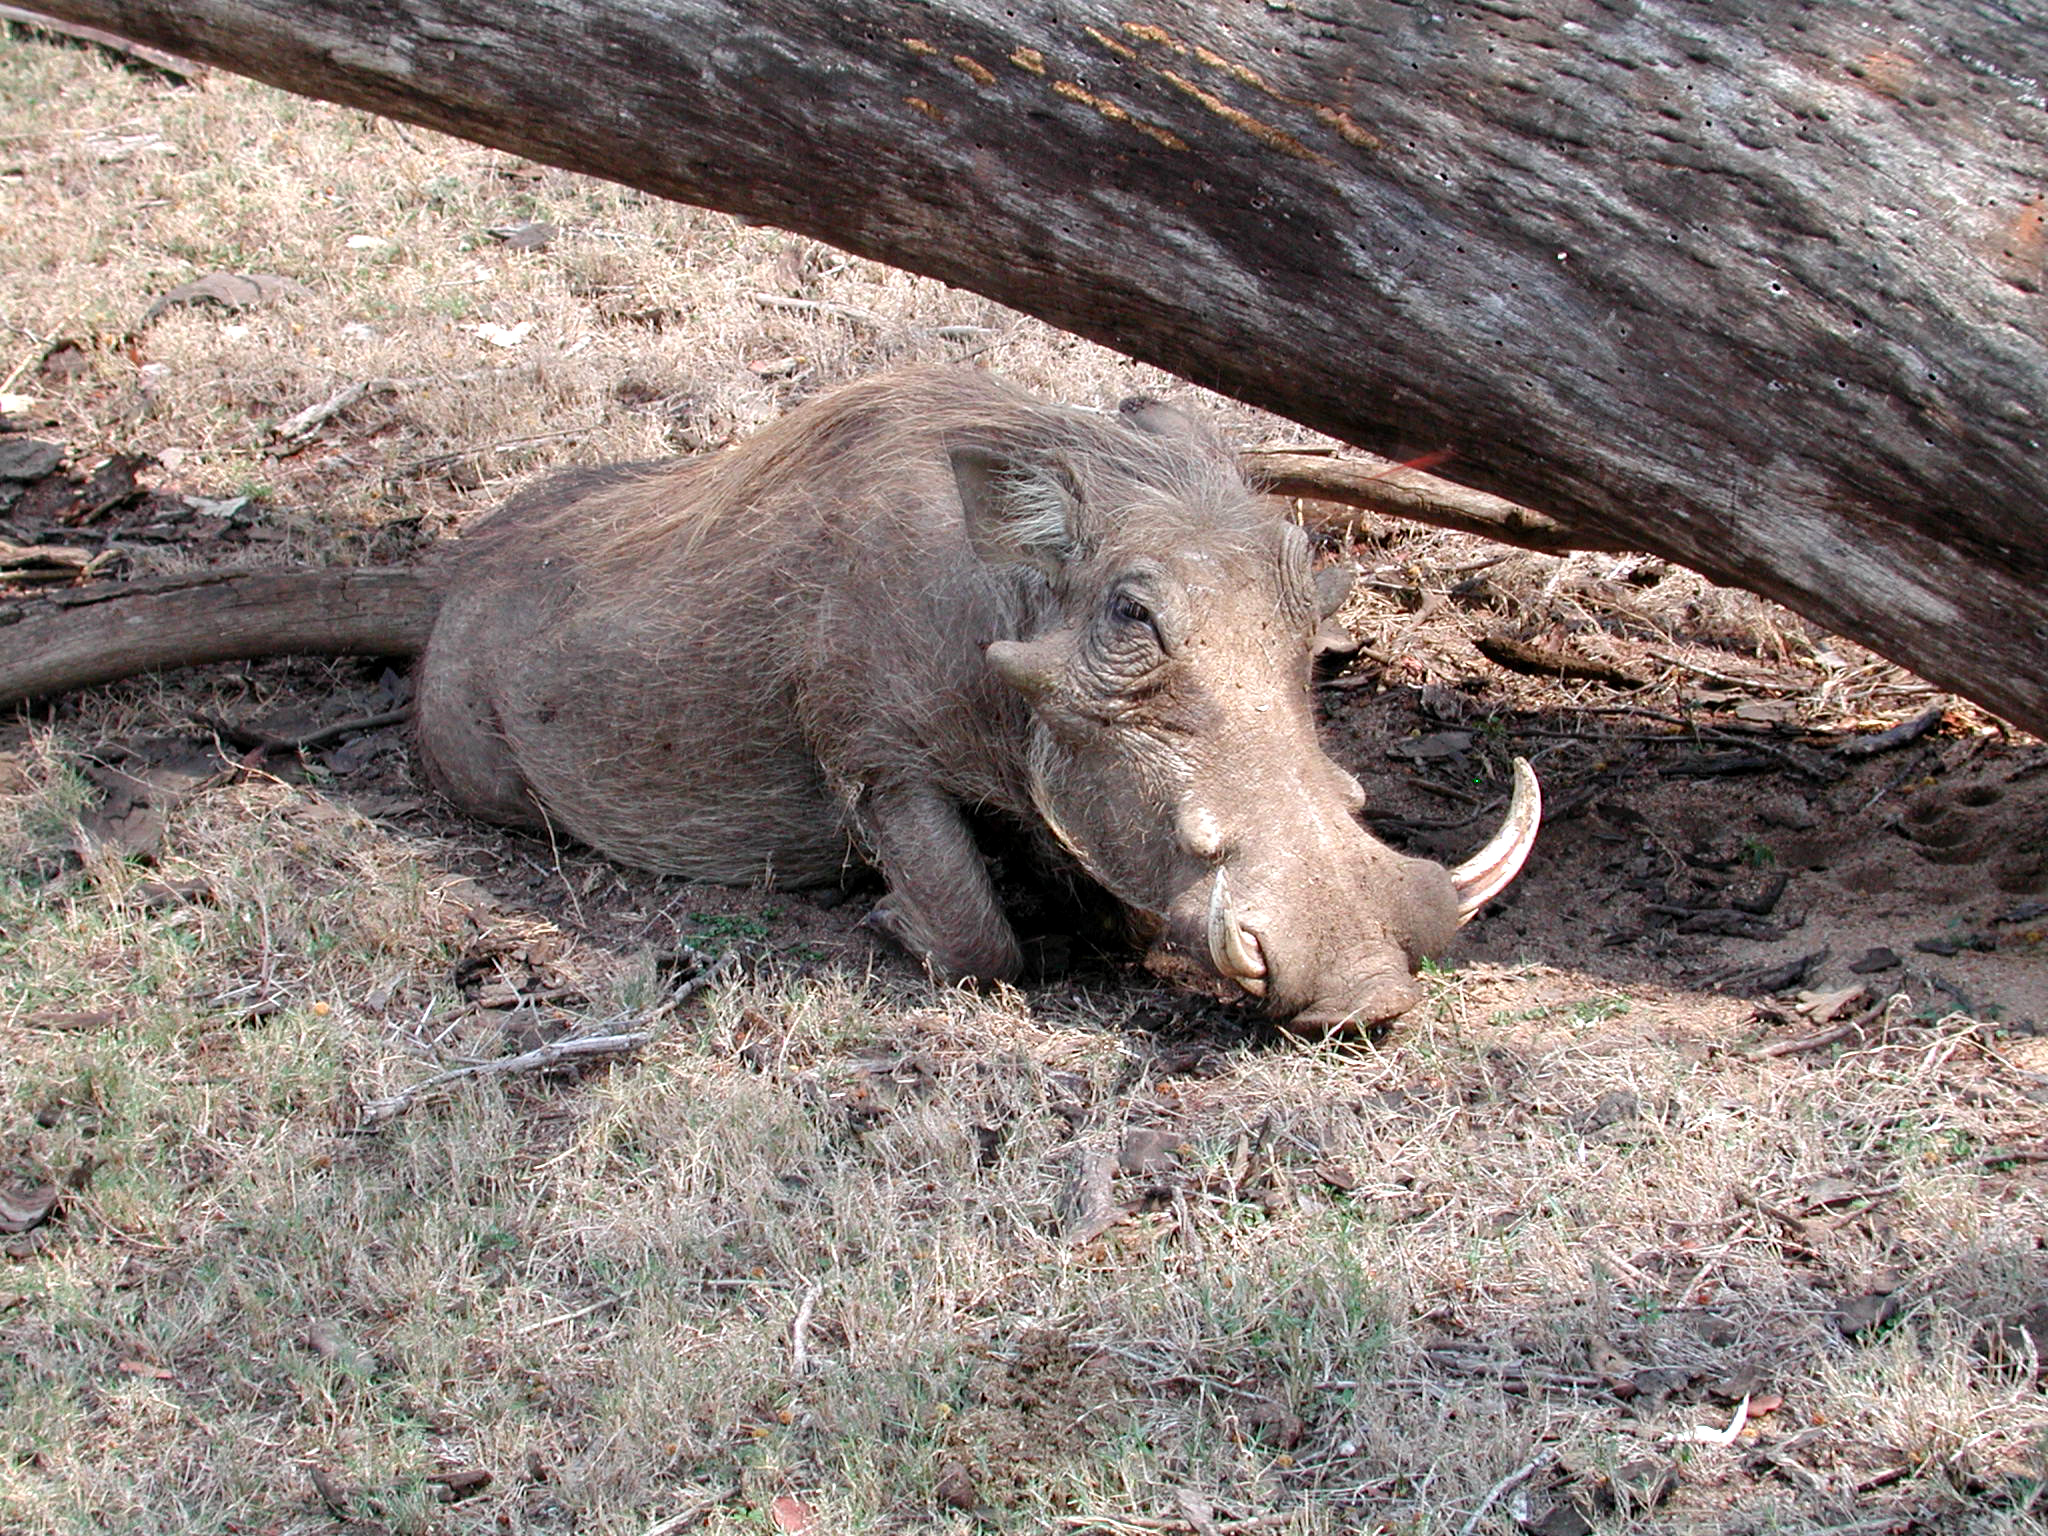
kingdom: Animalia
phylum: Chordata
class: Mammalia
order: Artiodactyla
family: Suidae
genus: Phacochoerus
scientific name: Phacochoerus africanus
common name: Common warthog
